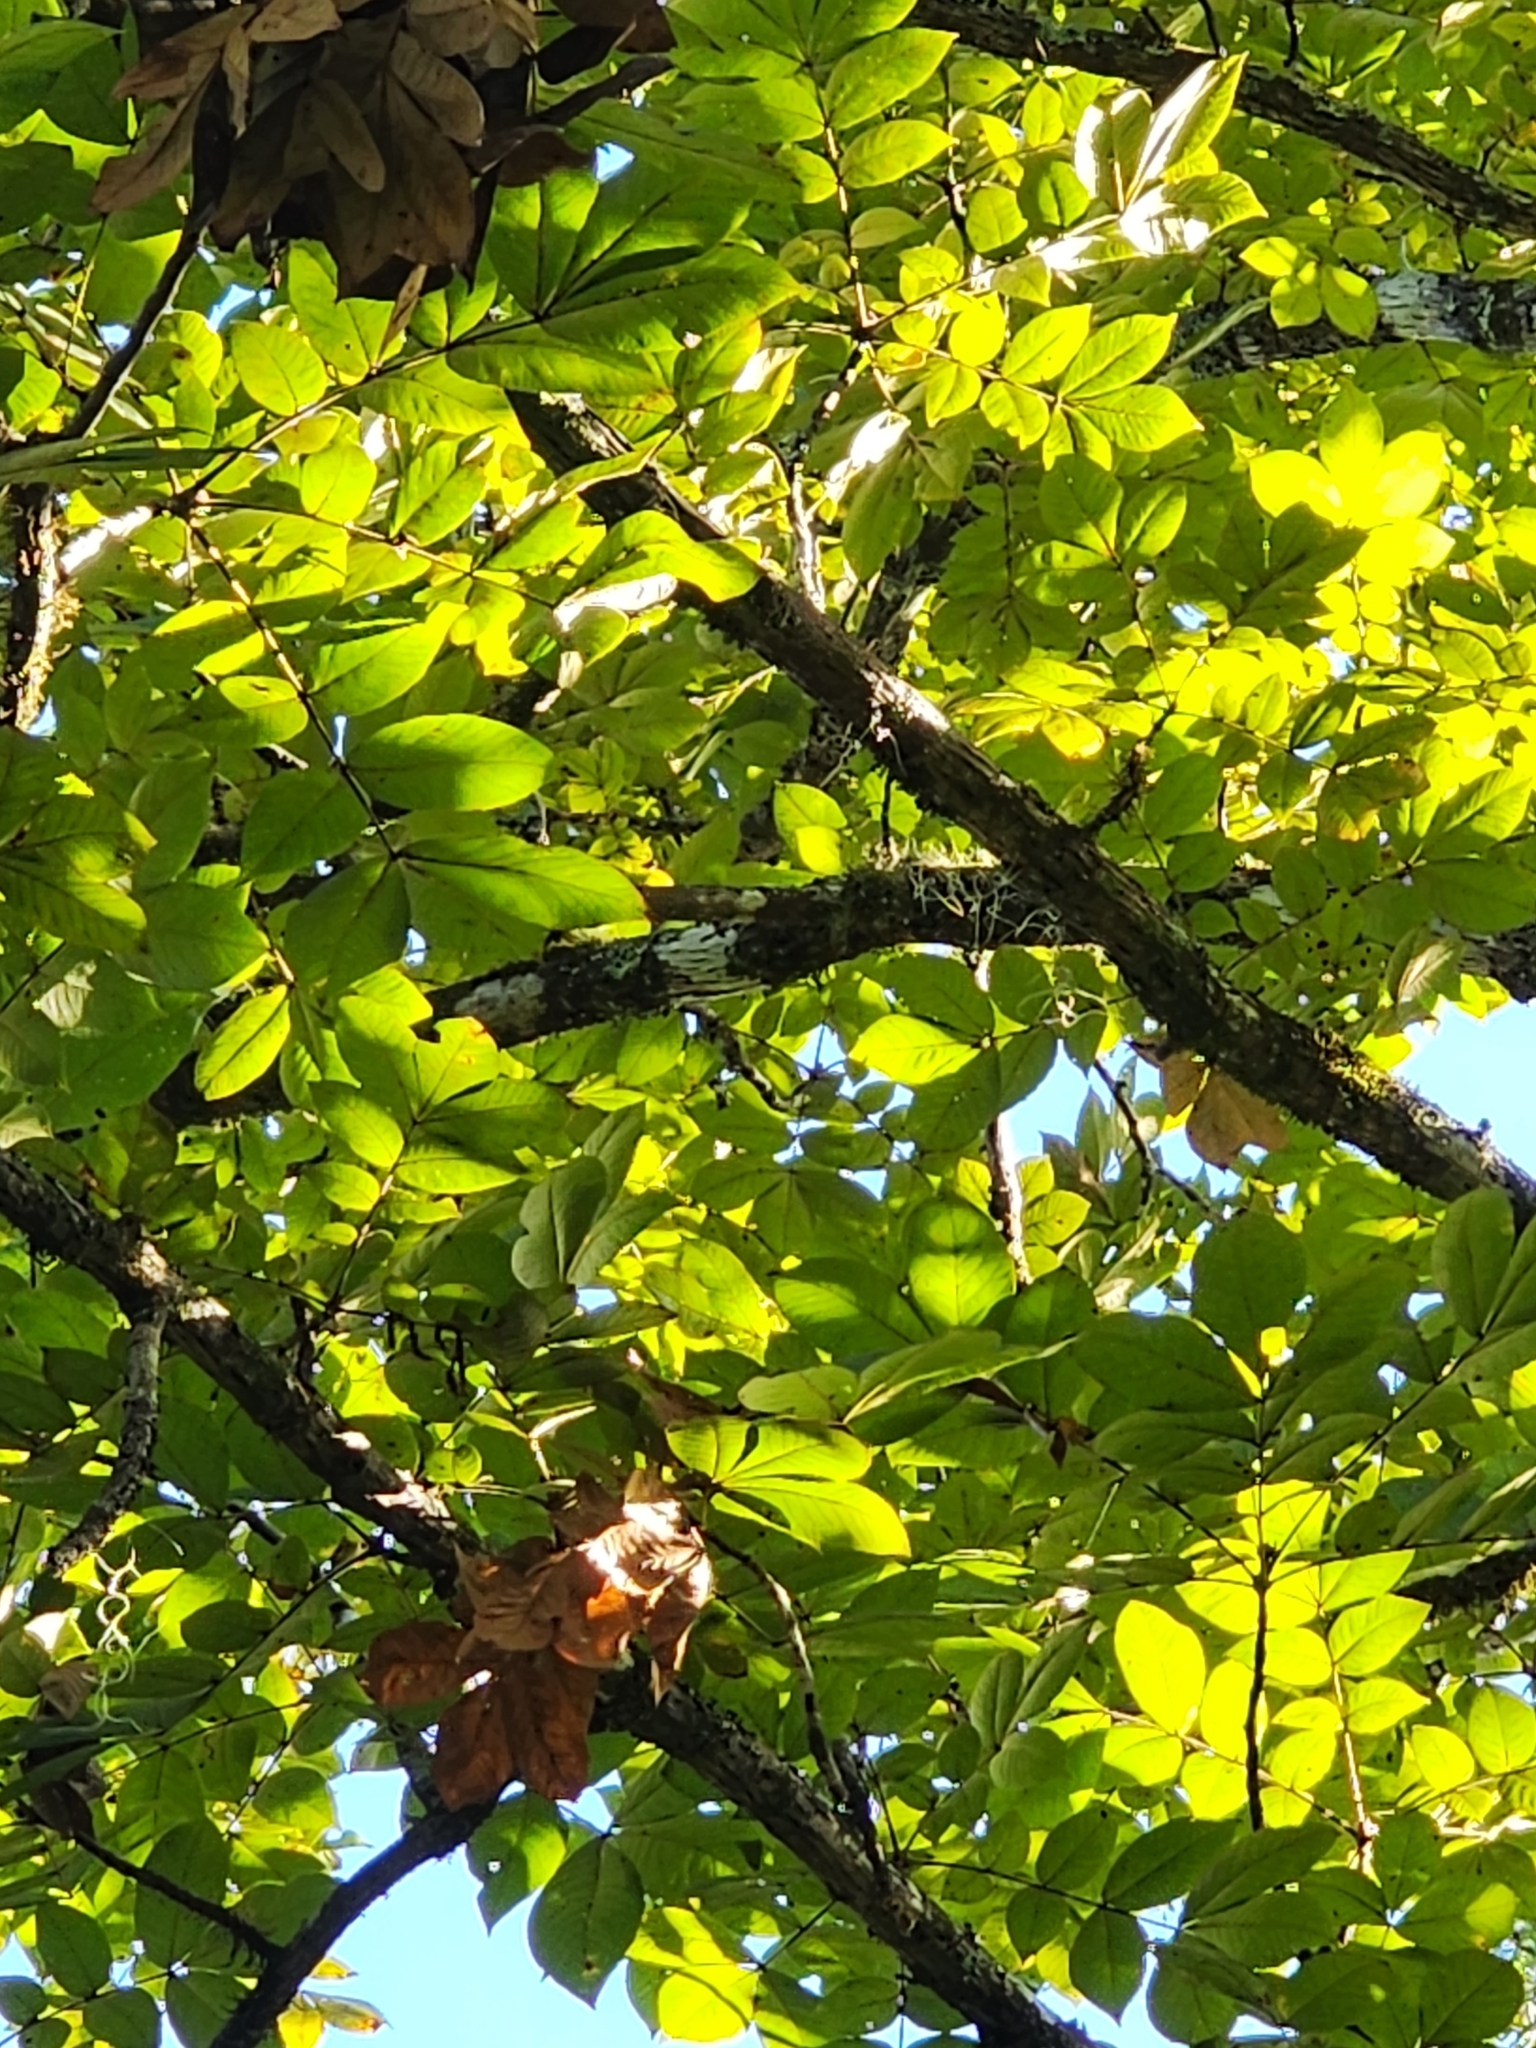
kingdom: Plantae
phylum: Tracheophyta
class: Magnoliopsida
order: Fagales
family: Juglandaceae
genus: Carya
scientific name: Carya alba
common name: Mockernut hickory
